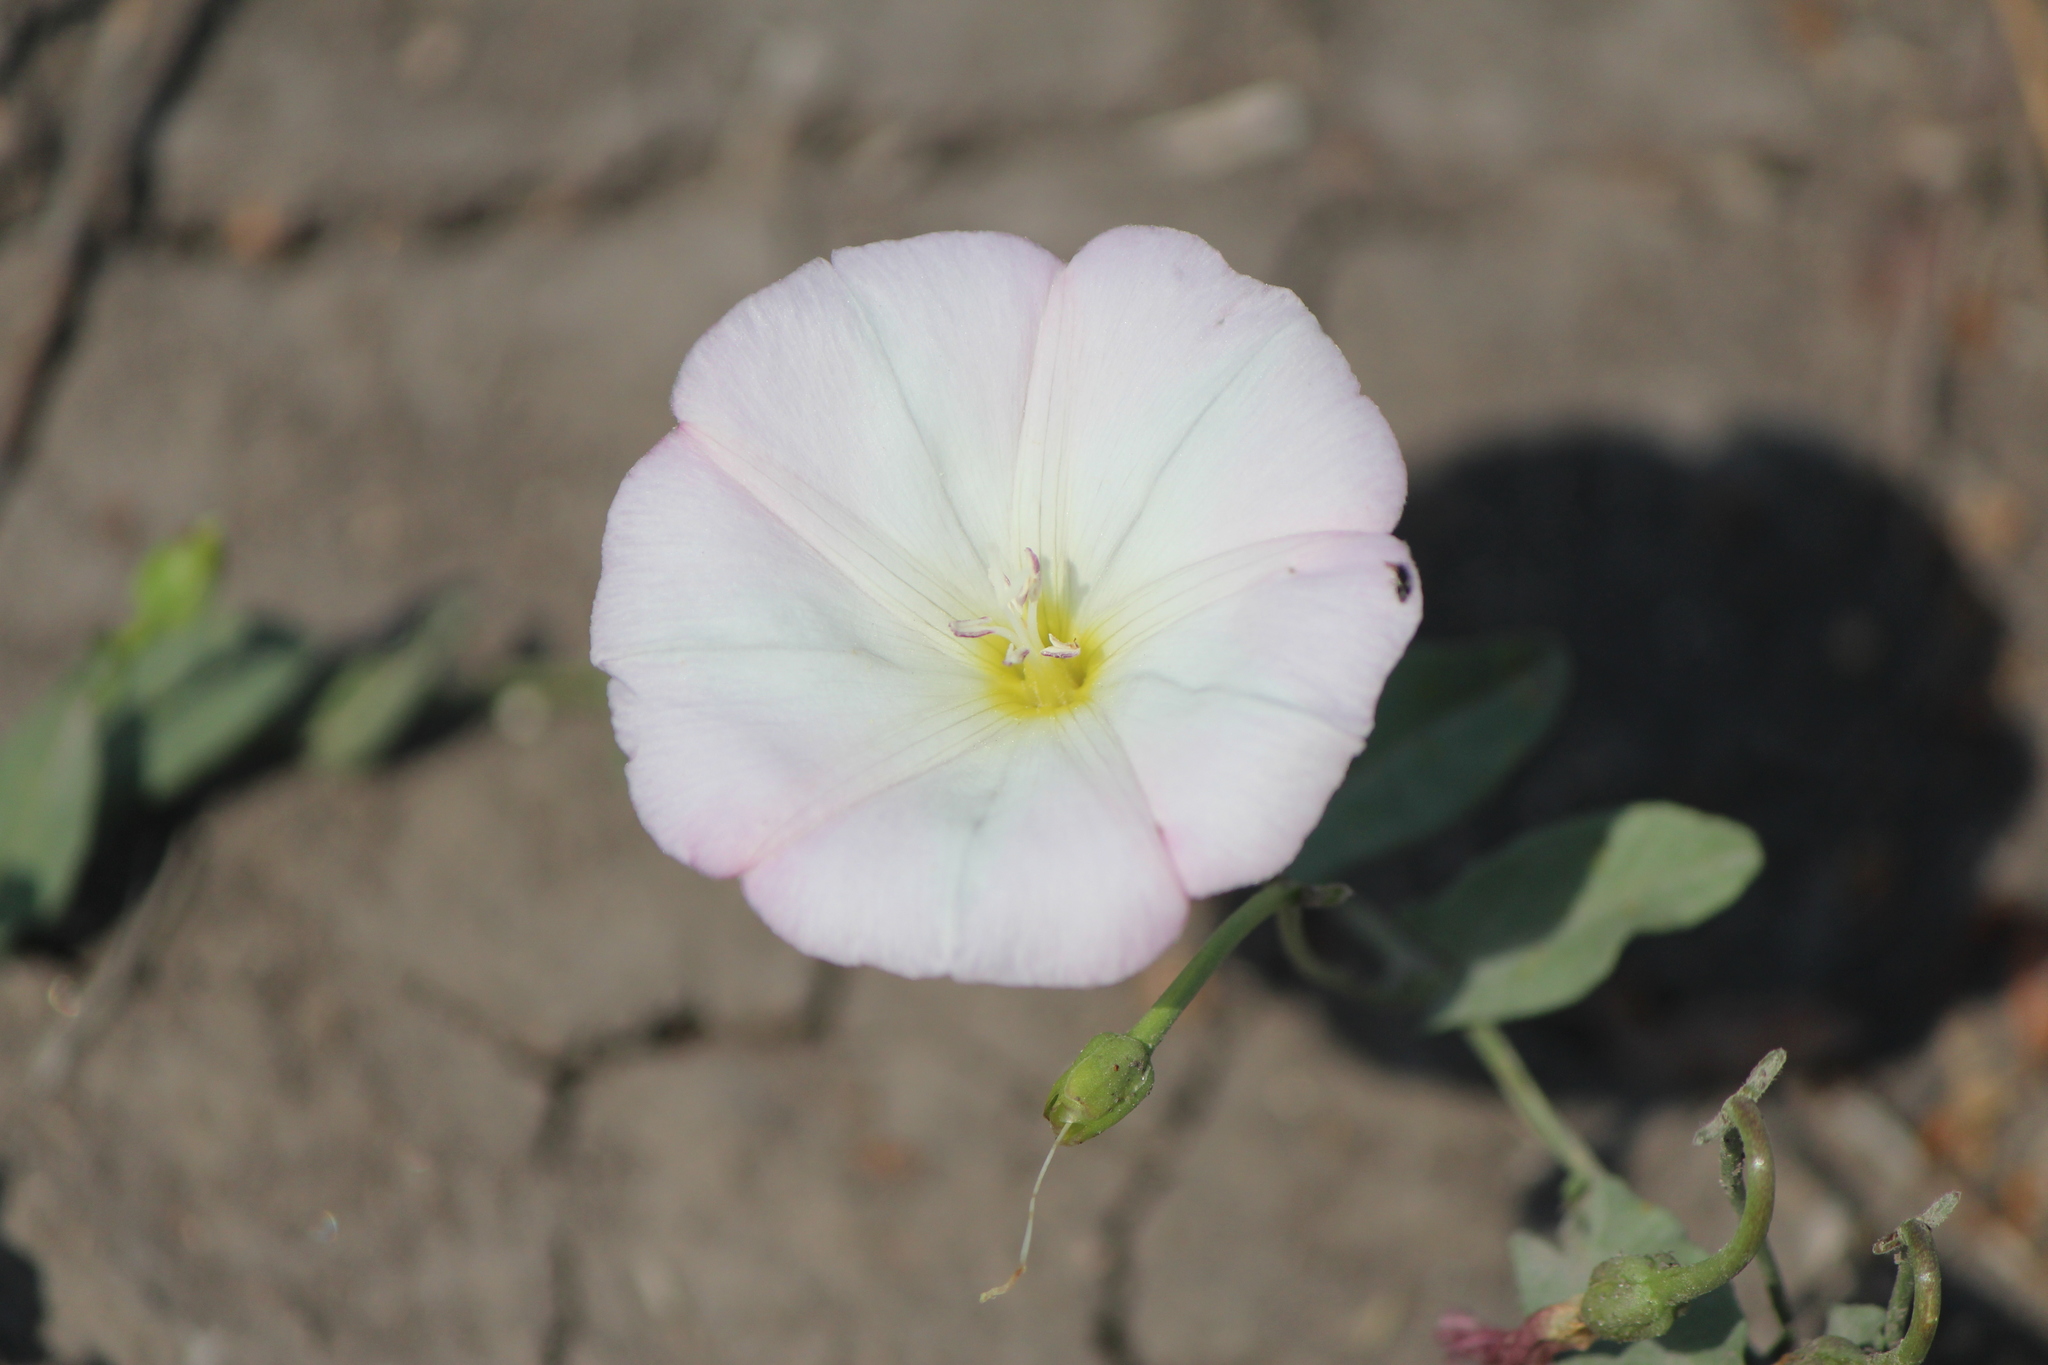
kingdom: Plantae
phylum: Tracheophyta
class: Magnoliopsida
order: Solanales
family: Convolvulaceae
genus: Convolvulus
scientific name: Convolvulus arvensis
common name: Field bindweed
